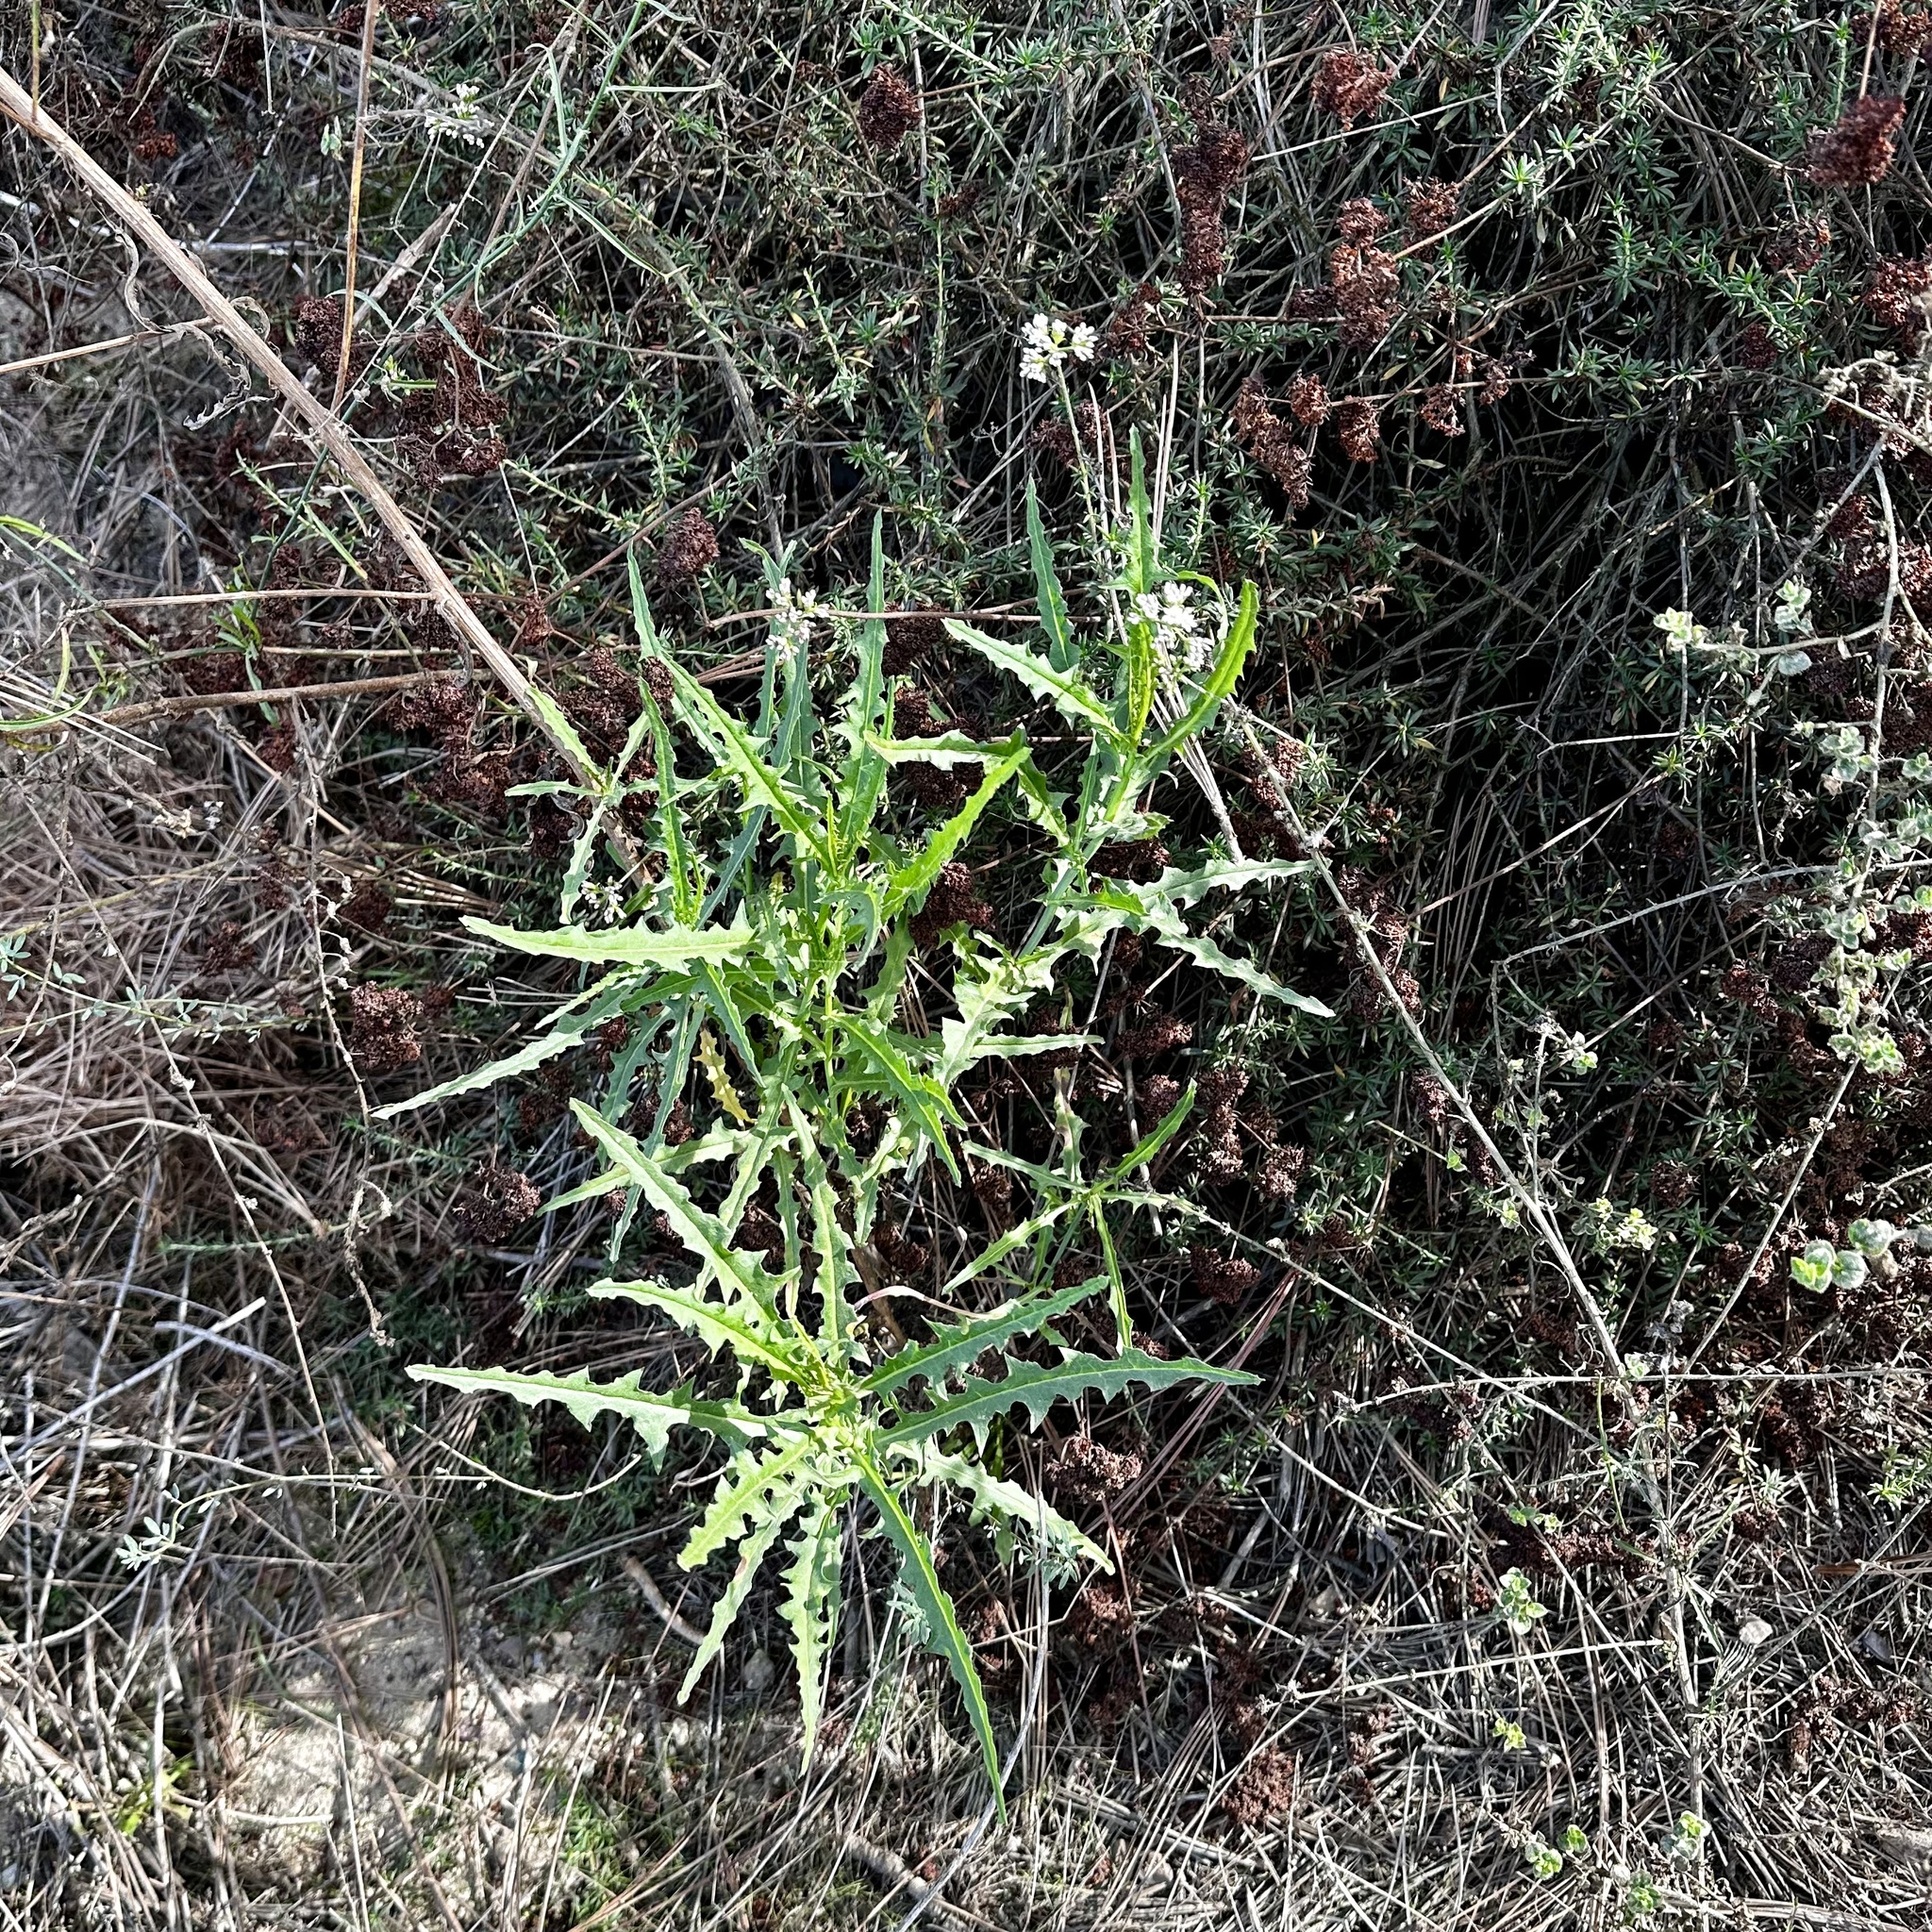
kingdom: Plantae
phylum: Tracheophyta
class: Magnoliopsida
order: Myrtales
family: Onagraceae
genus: Eulobus
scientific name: Eulobus californicus
